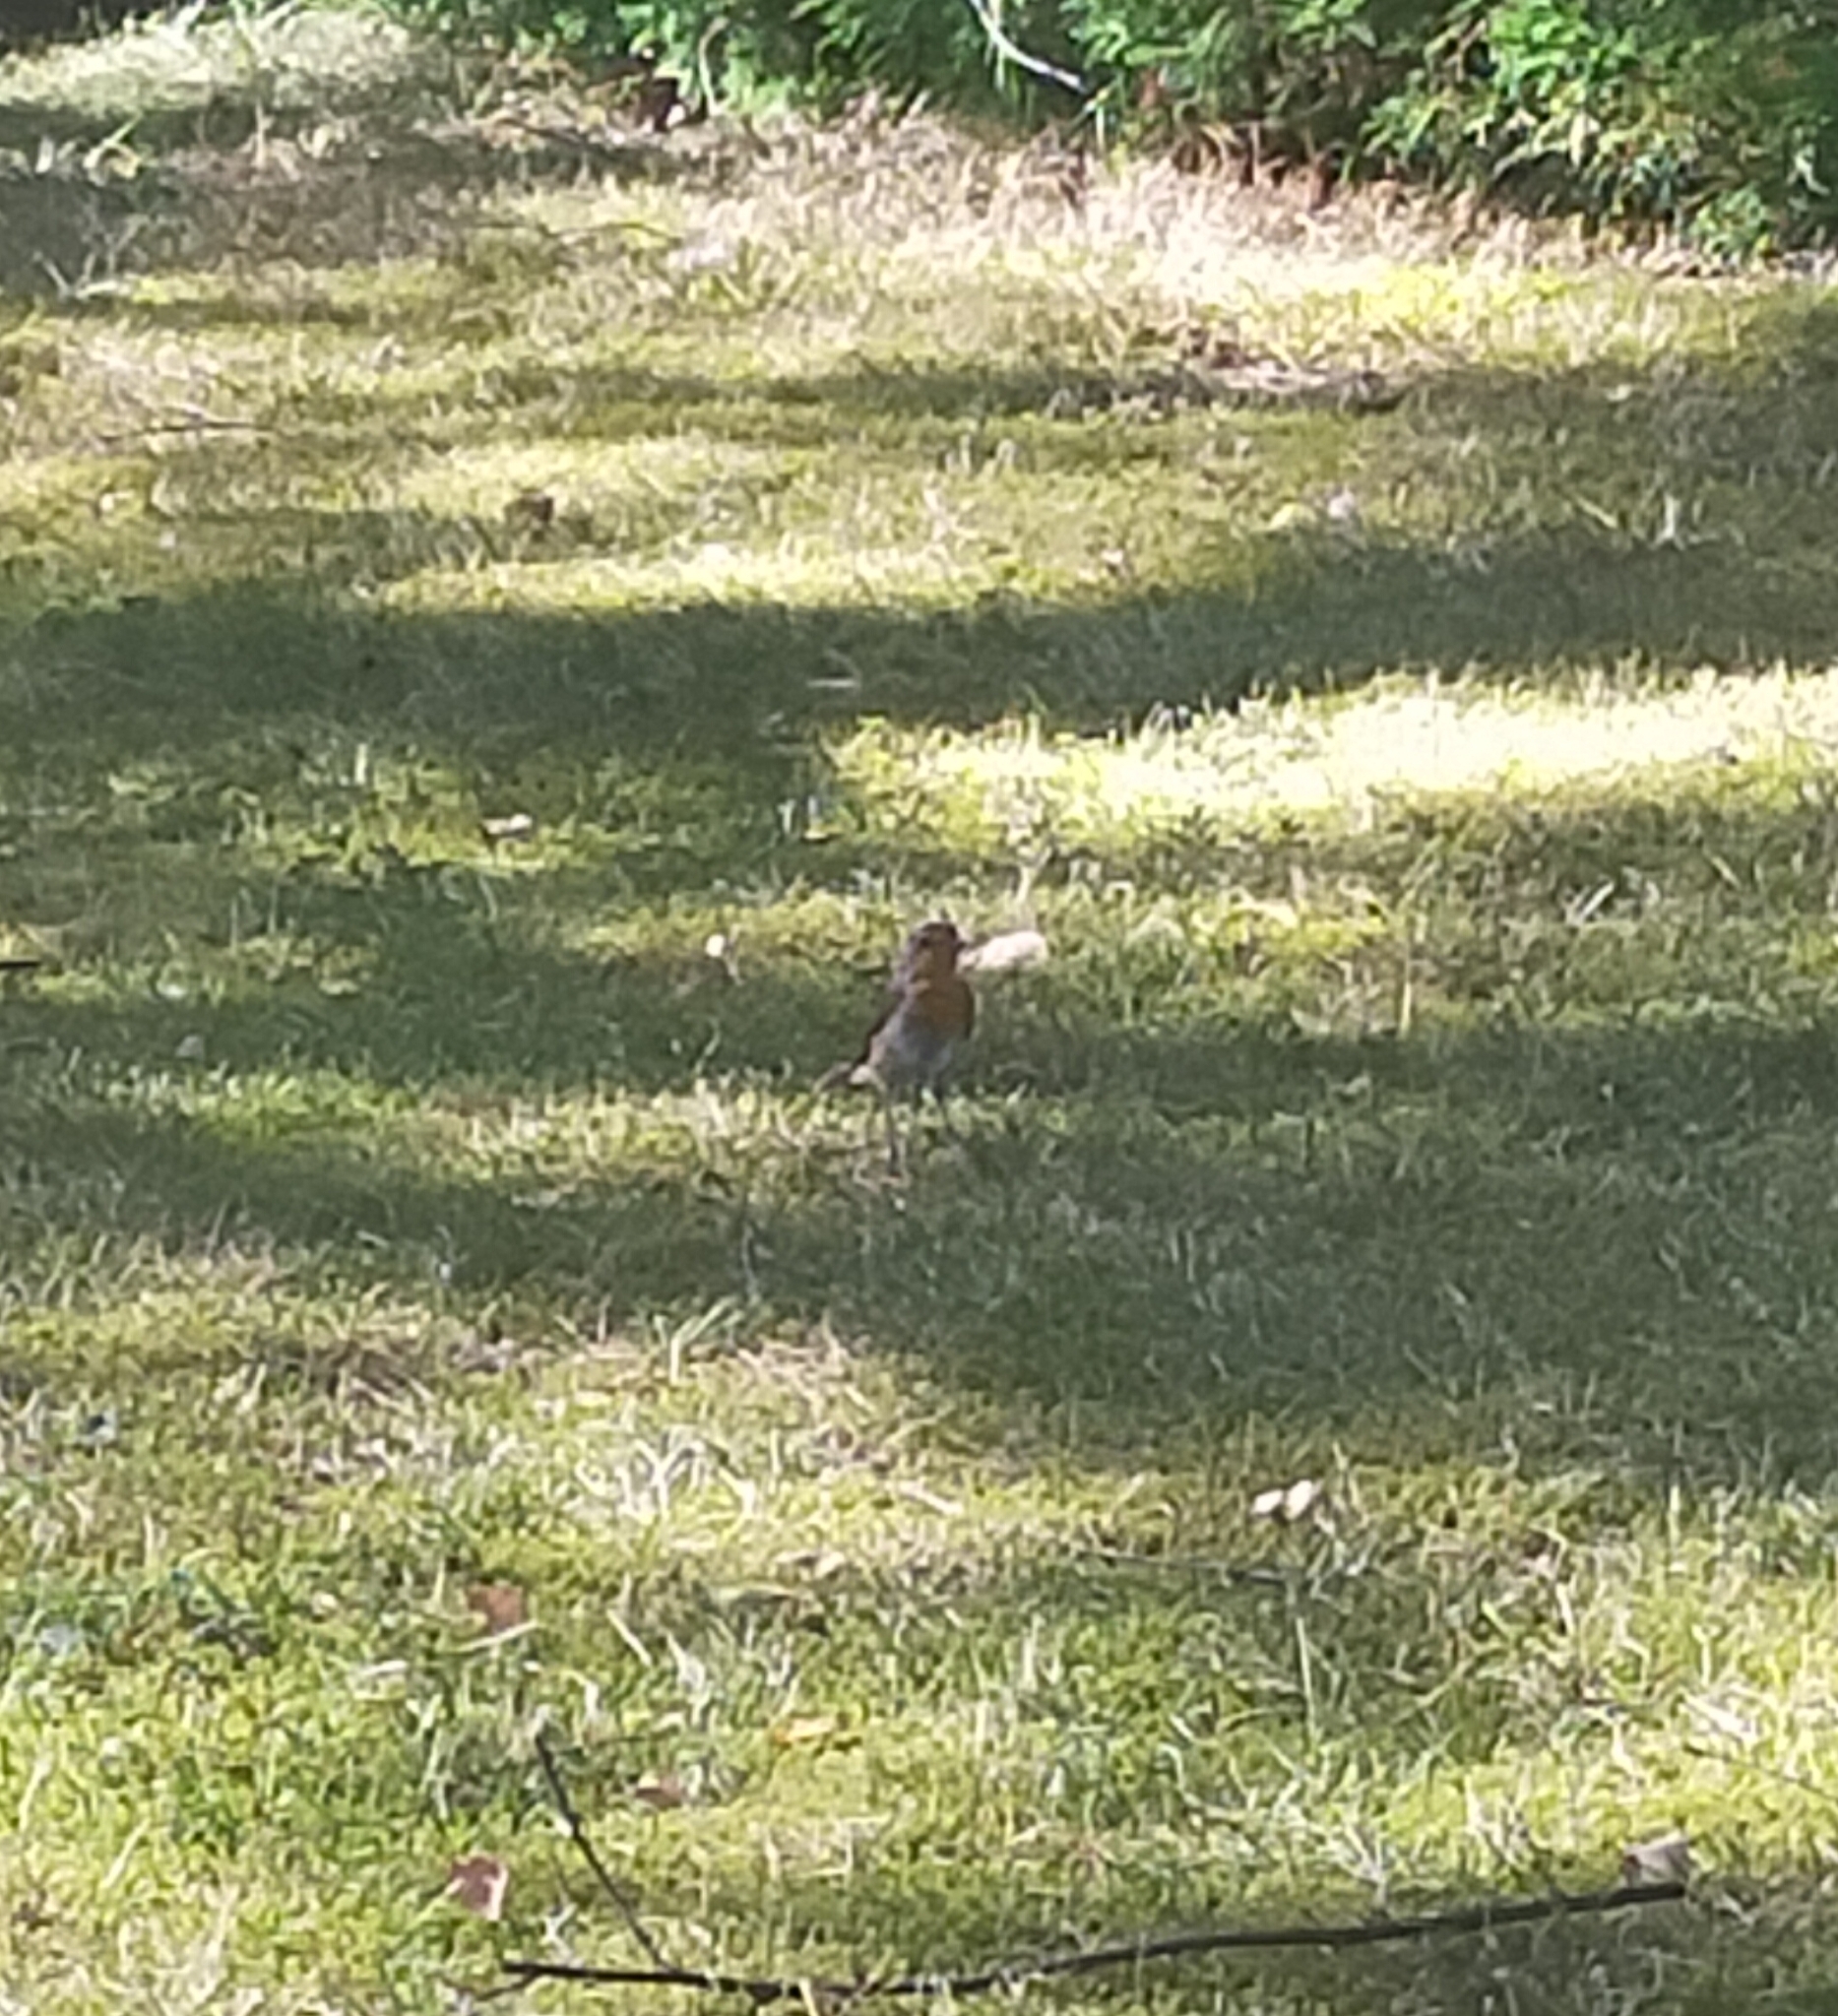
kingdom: Animalia
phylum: Chordata
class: Aves
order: Passeriformes
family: Muscicapidae
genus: Erithacus
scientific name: Erithacus rubecula
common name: European robin
